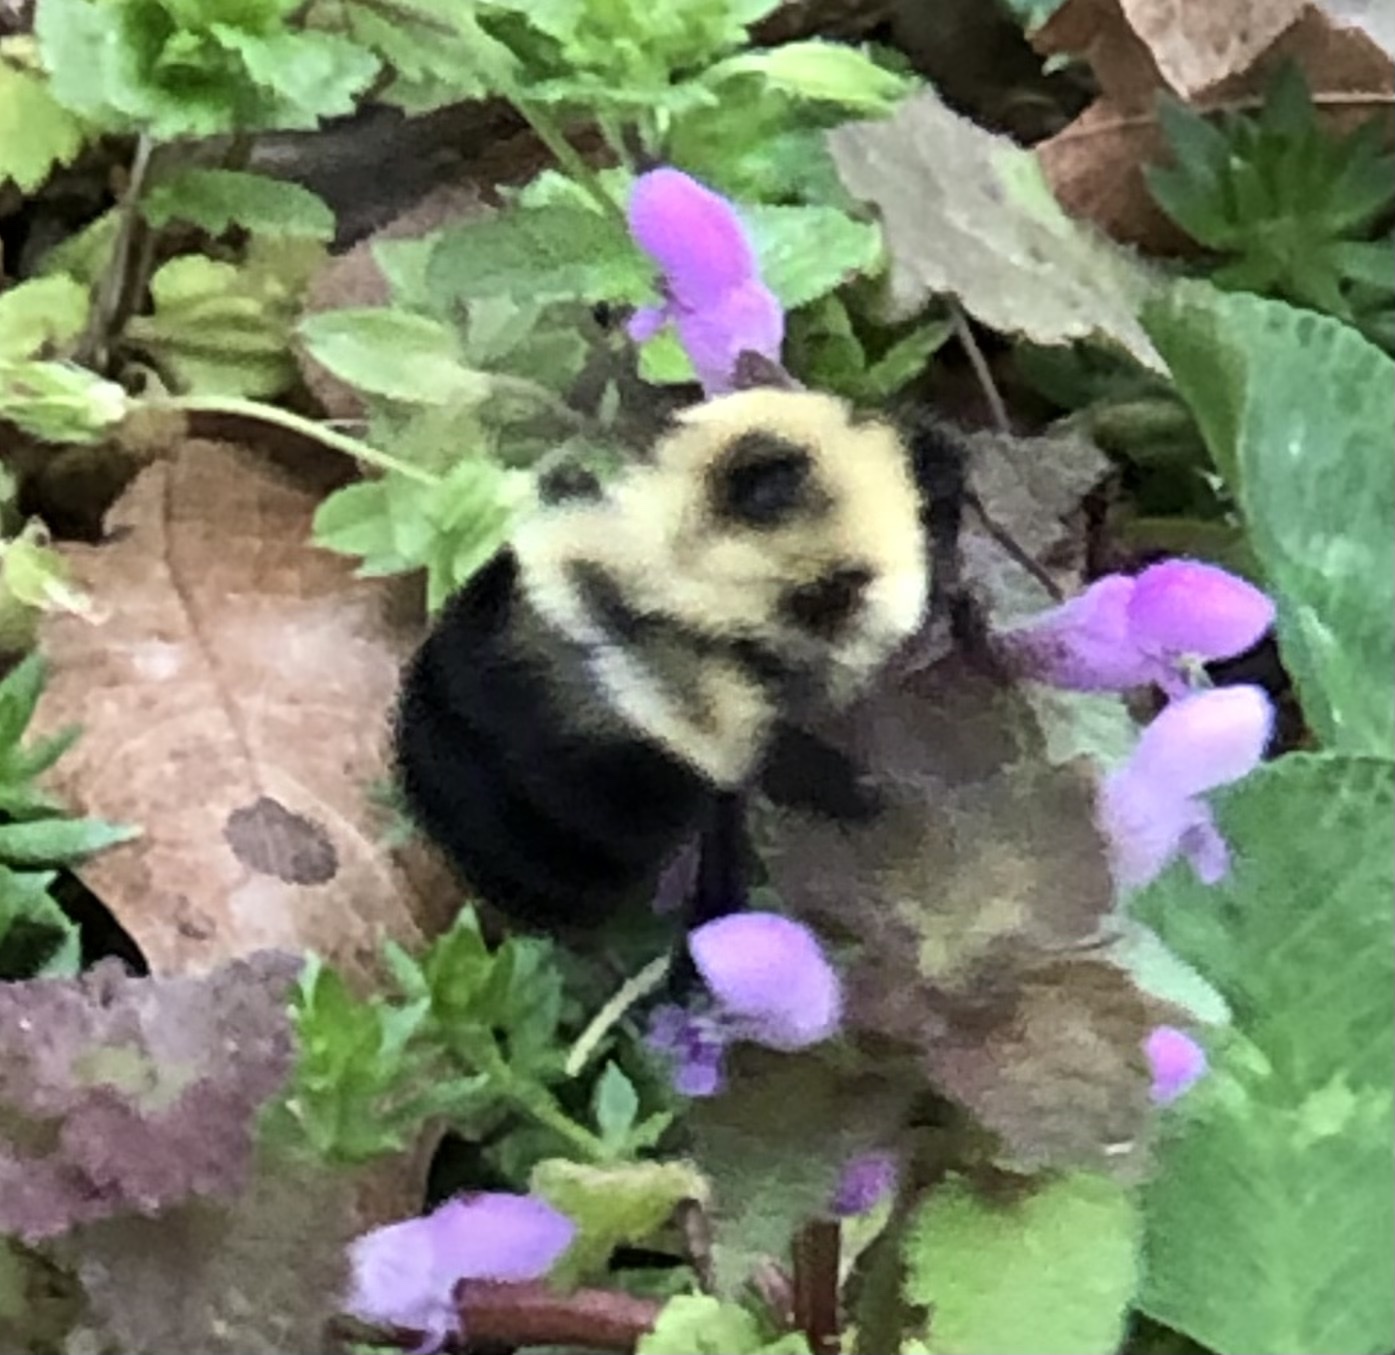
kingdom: Animalia
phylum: Arthropoda
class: Insecta
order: Hymenoptera
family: Apidae
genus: Bombus
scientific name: Bombus bimaculatus
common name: Two-spotted bumble bee
